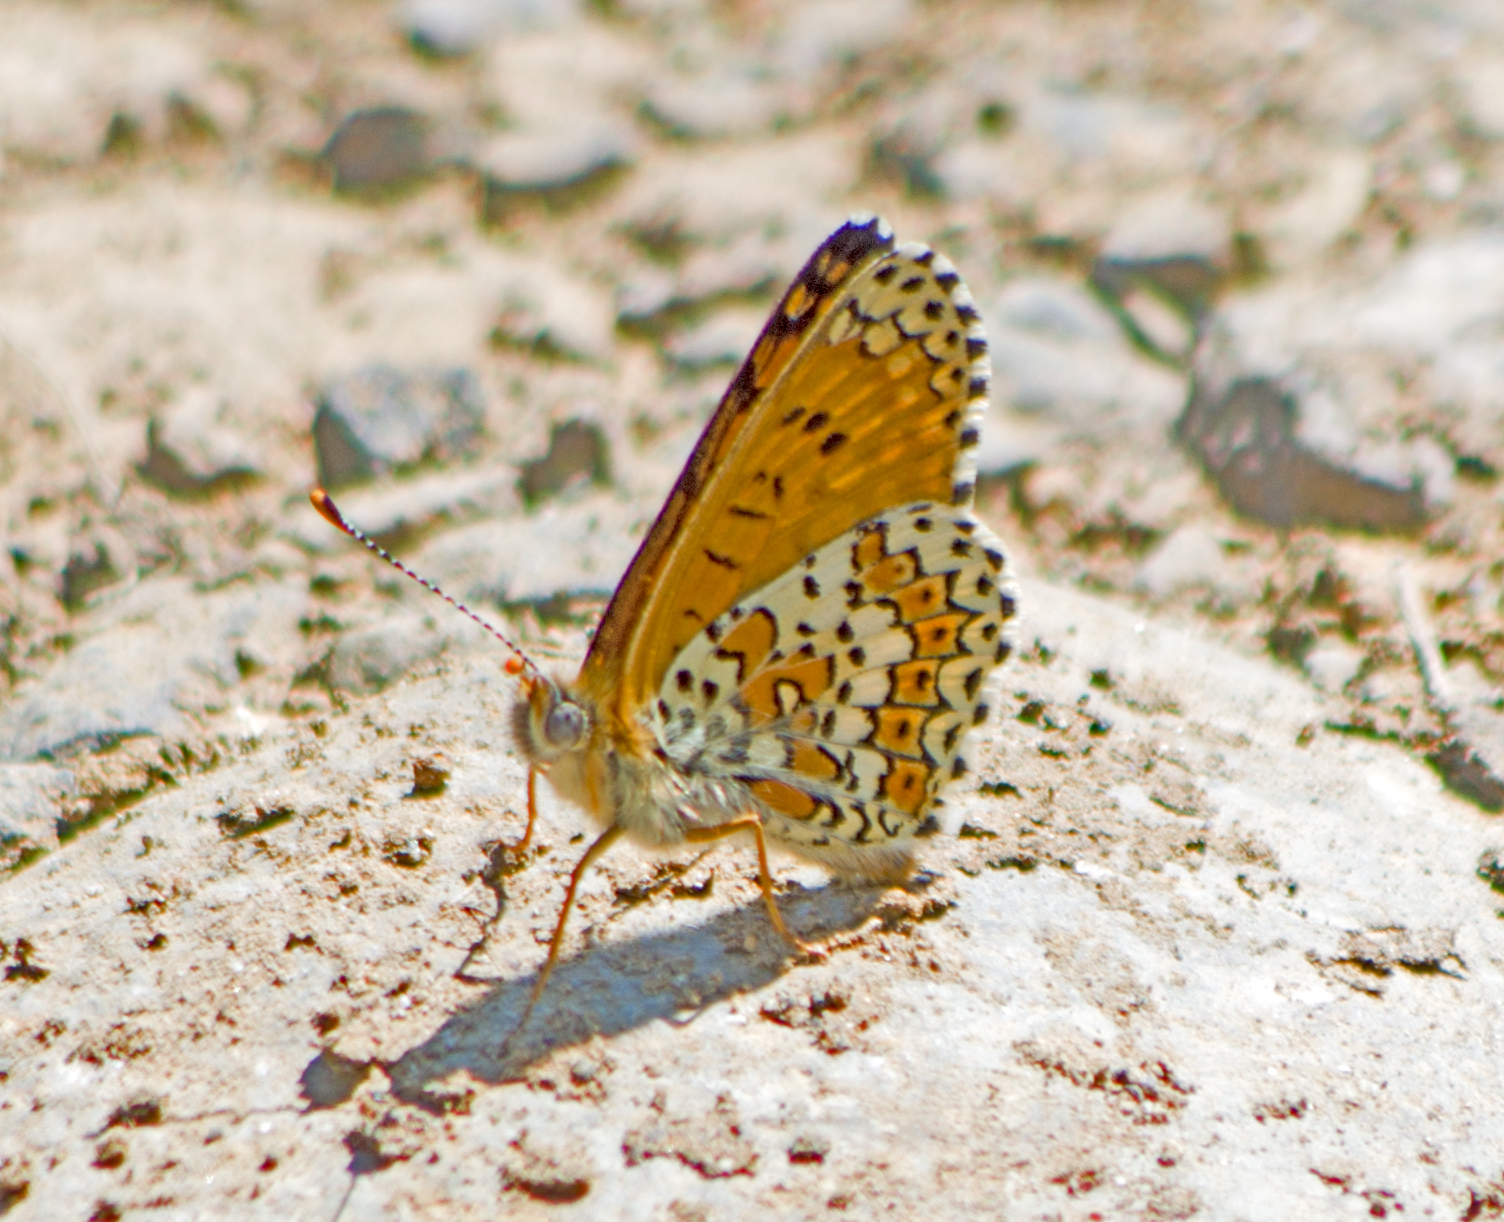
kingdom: Animalia
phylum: Arthropoda
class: Insecta
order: Lepidoptera
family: Nymphalidae
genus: Melitaea
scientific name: Melitaea cinxia
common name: Glanville fritillary
